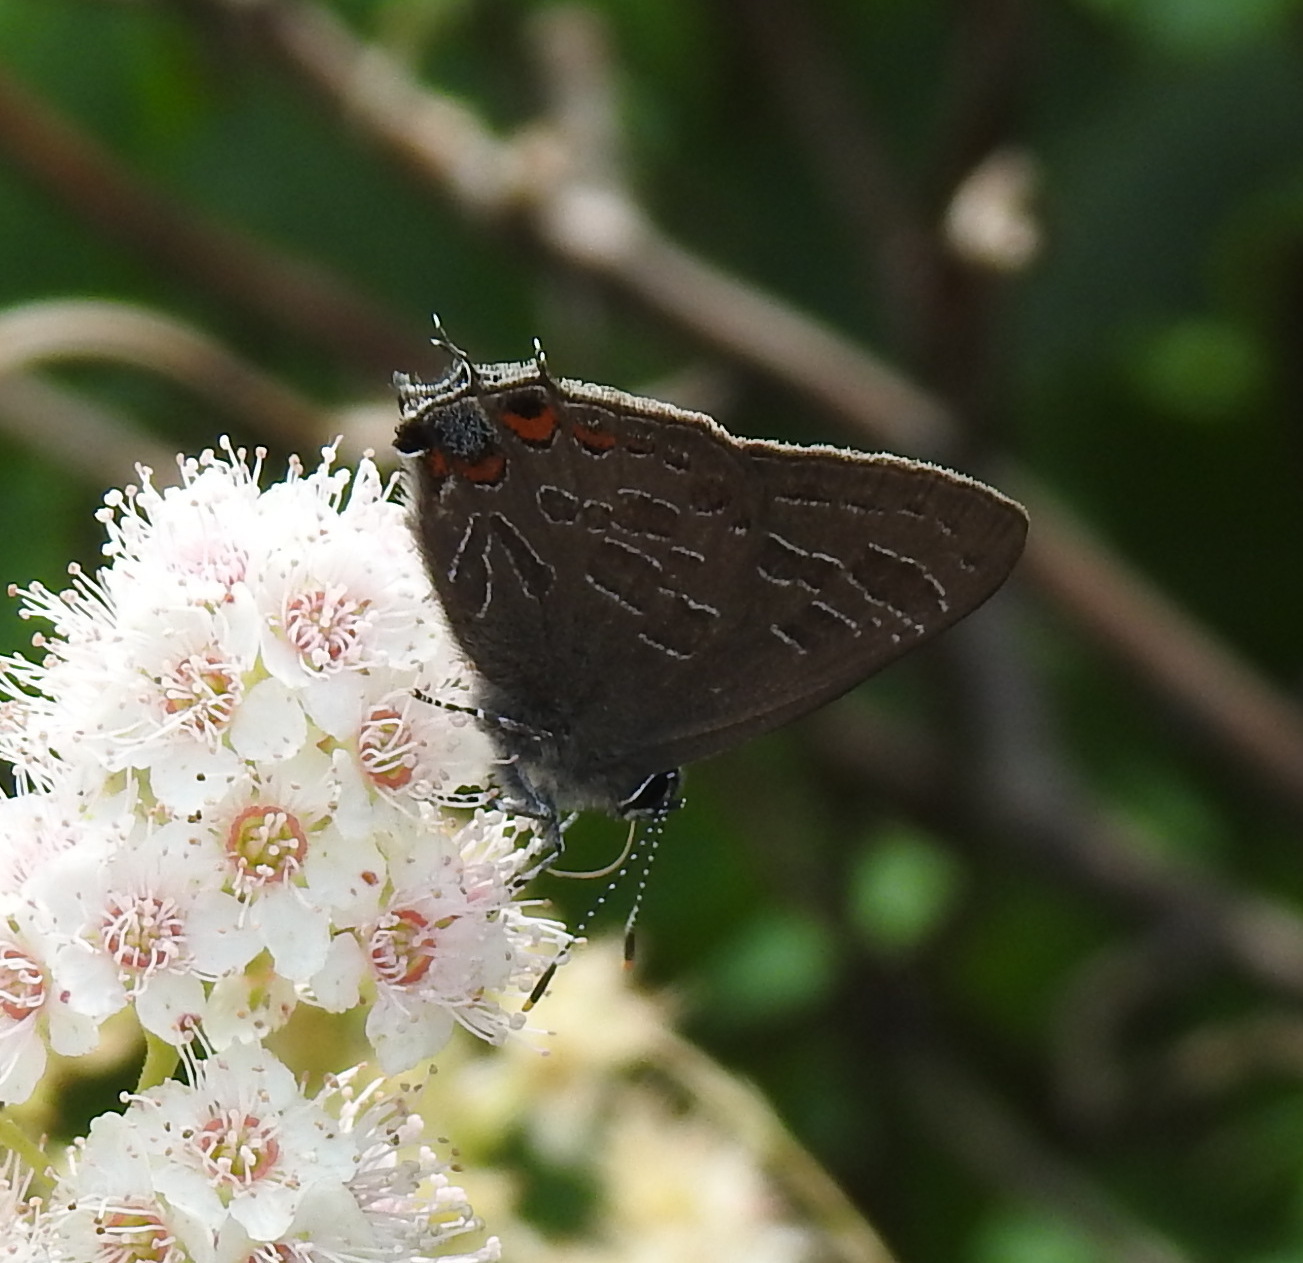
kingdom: Animalia
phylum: Arthropoda
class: Insecta
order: Lepidoptera
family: Lycaenidae
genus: Satyrium
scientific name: Satyrium liparops
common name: Striped hairstreak
